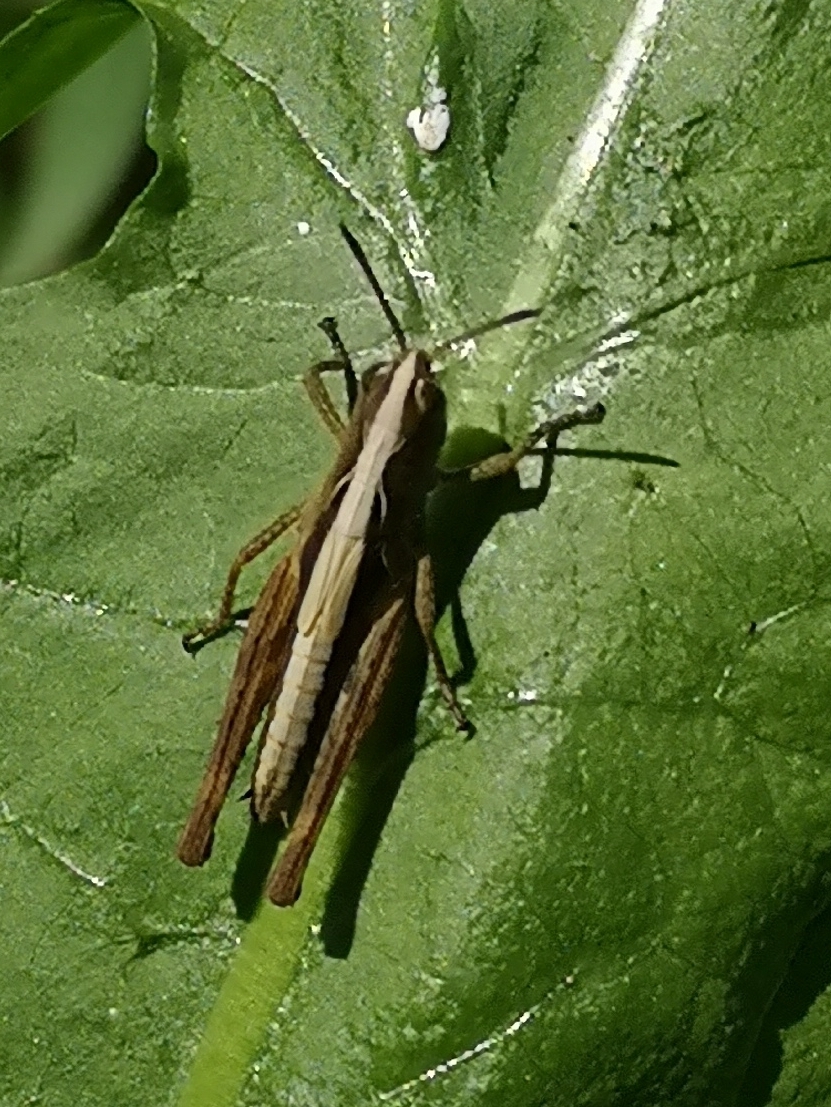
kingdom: Animalia
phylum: Arthropoda
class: Insecta
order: Orthoptera
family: Acrididae
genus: Gomphocerippus
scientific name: Gomphocerippus rufus
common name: Rufous grasshopper
